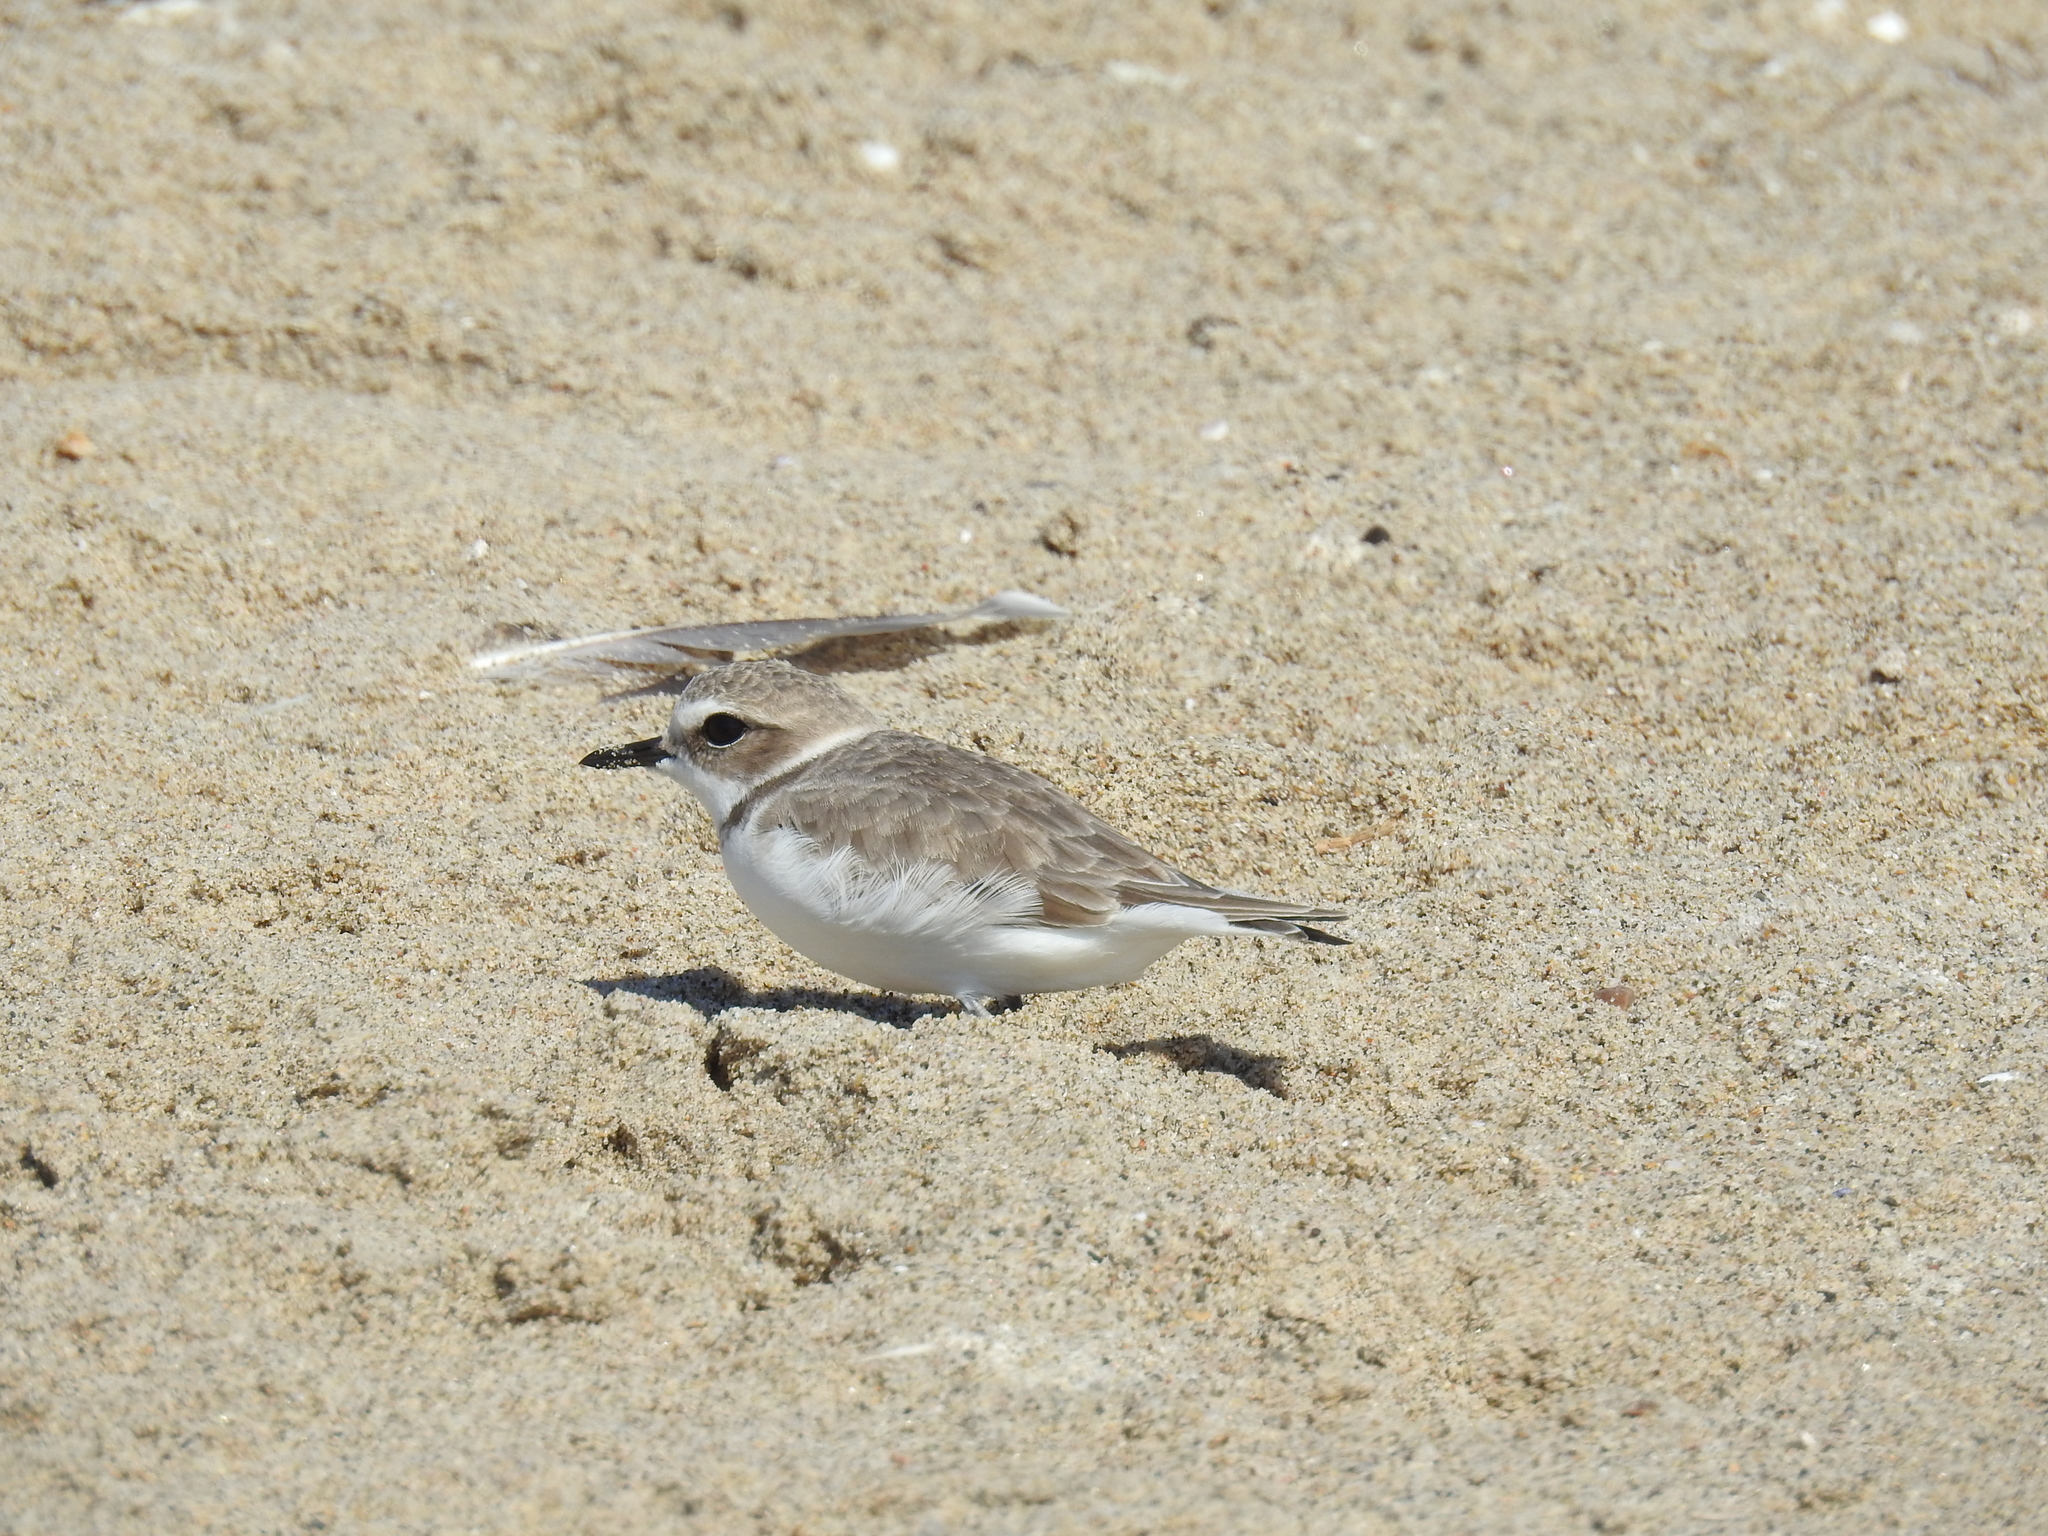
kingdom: Animalia
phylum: Chordata
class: Aves
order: Charadriiformes
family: Charadriidae
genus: Anarhynchus
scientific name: Anarhynchus
